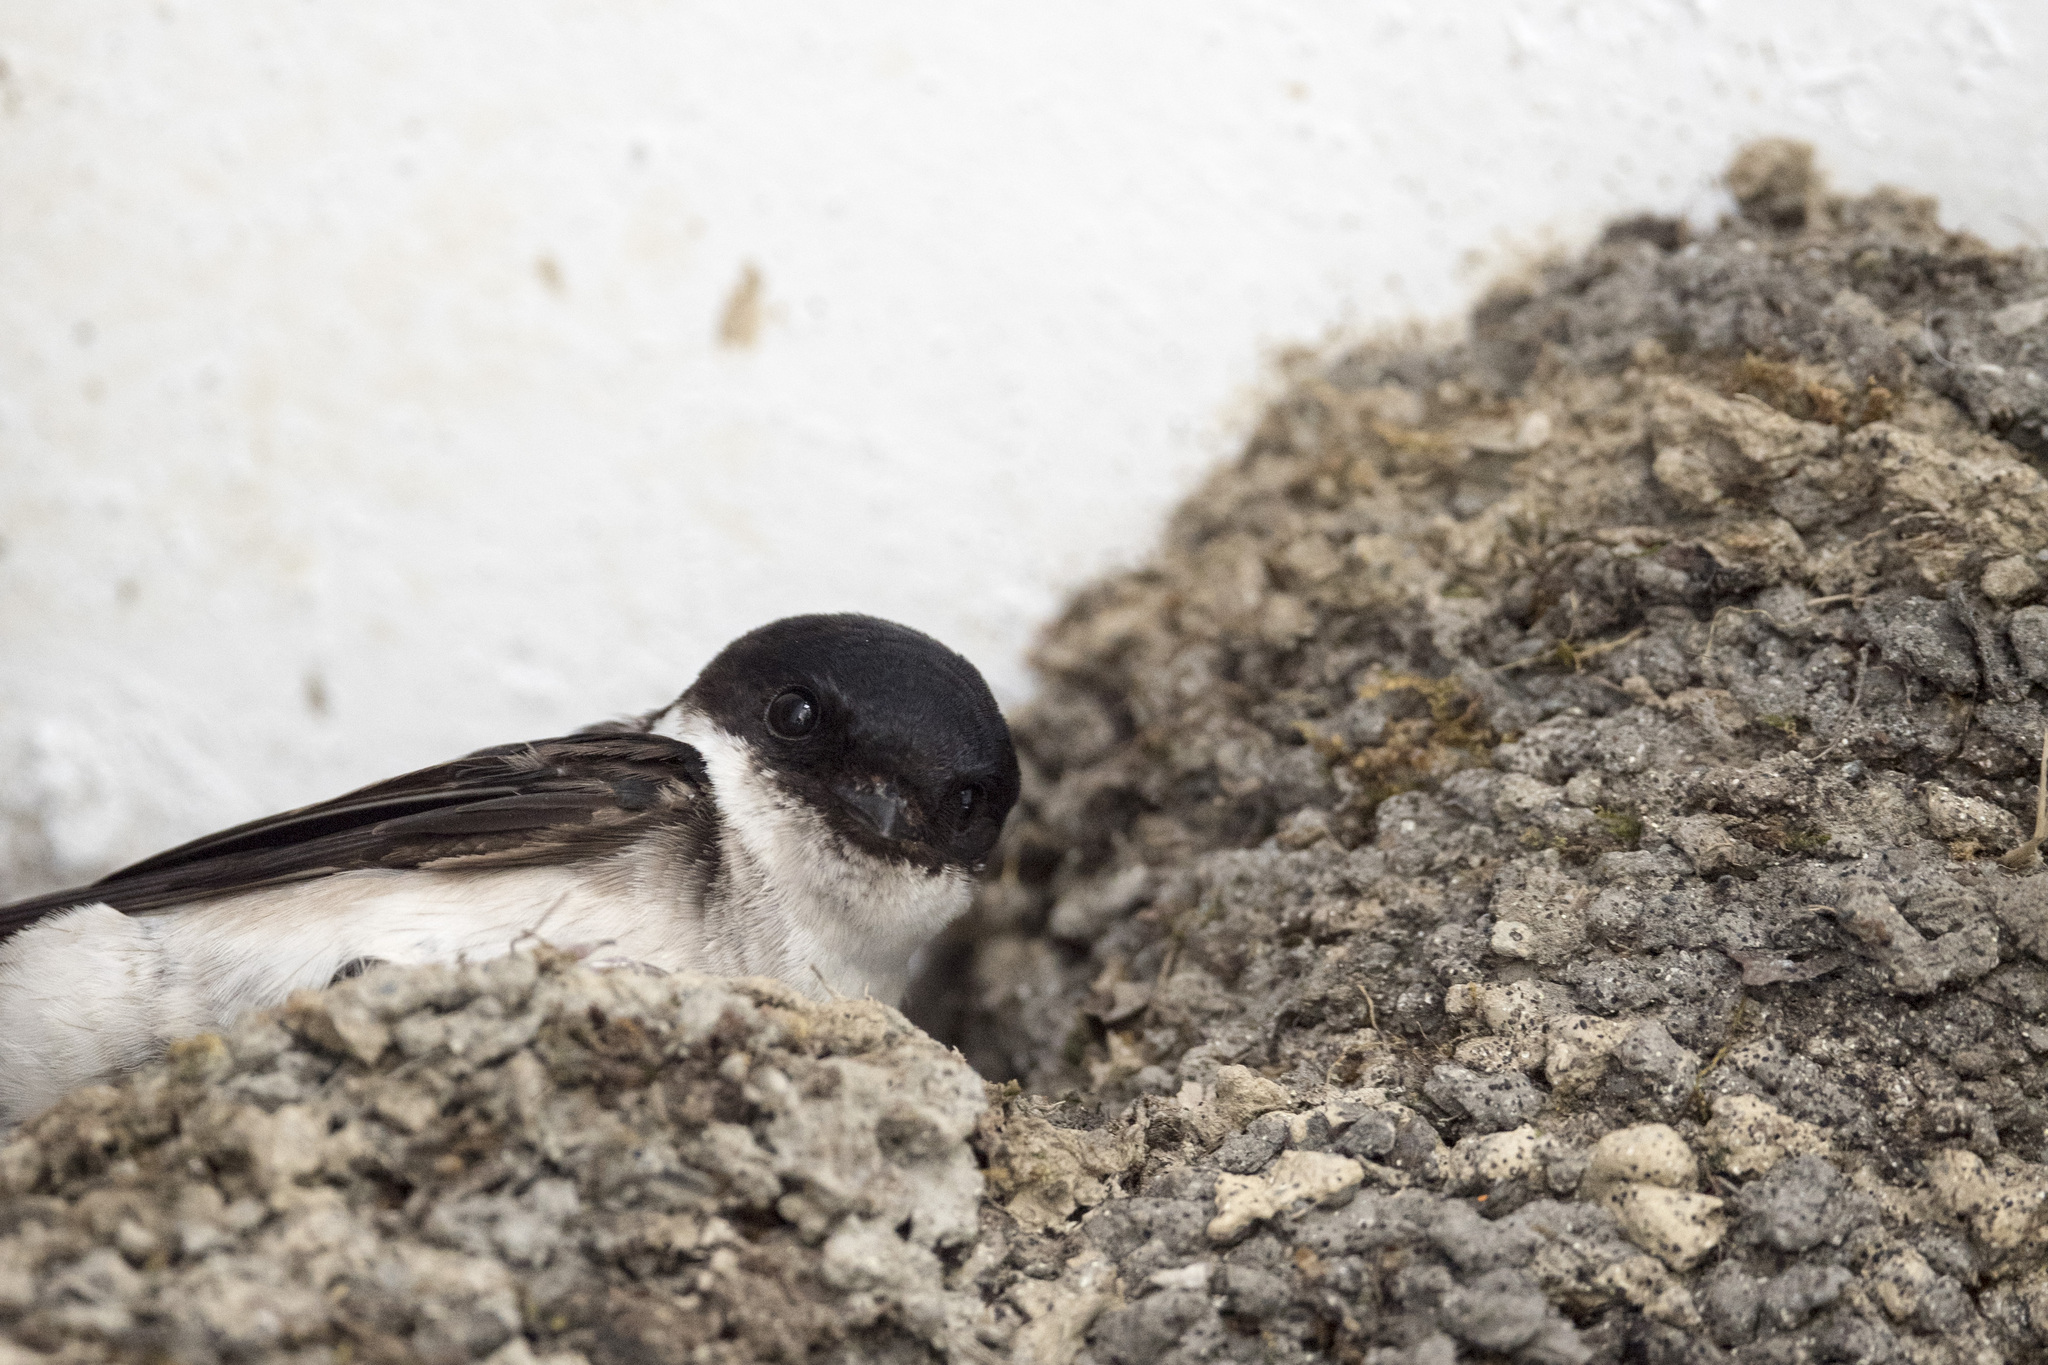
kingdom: Animalia
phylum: Chordata
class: Aves
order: Passeriformes
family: Hirundinidae
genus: Delichon
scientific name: Delichon dasypus
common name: Asian house martin
